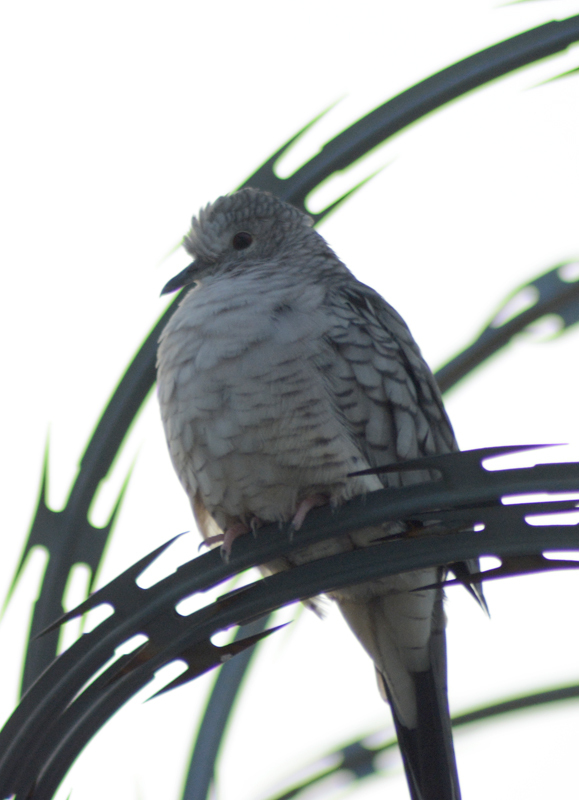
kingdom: Animalia
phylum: Chordata
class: Aves
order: Columbiformes
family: Columbidae
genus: Columbina
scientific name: Columbina inca
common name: Inca dove
